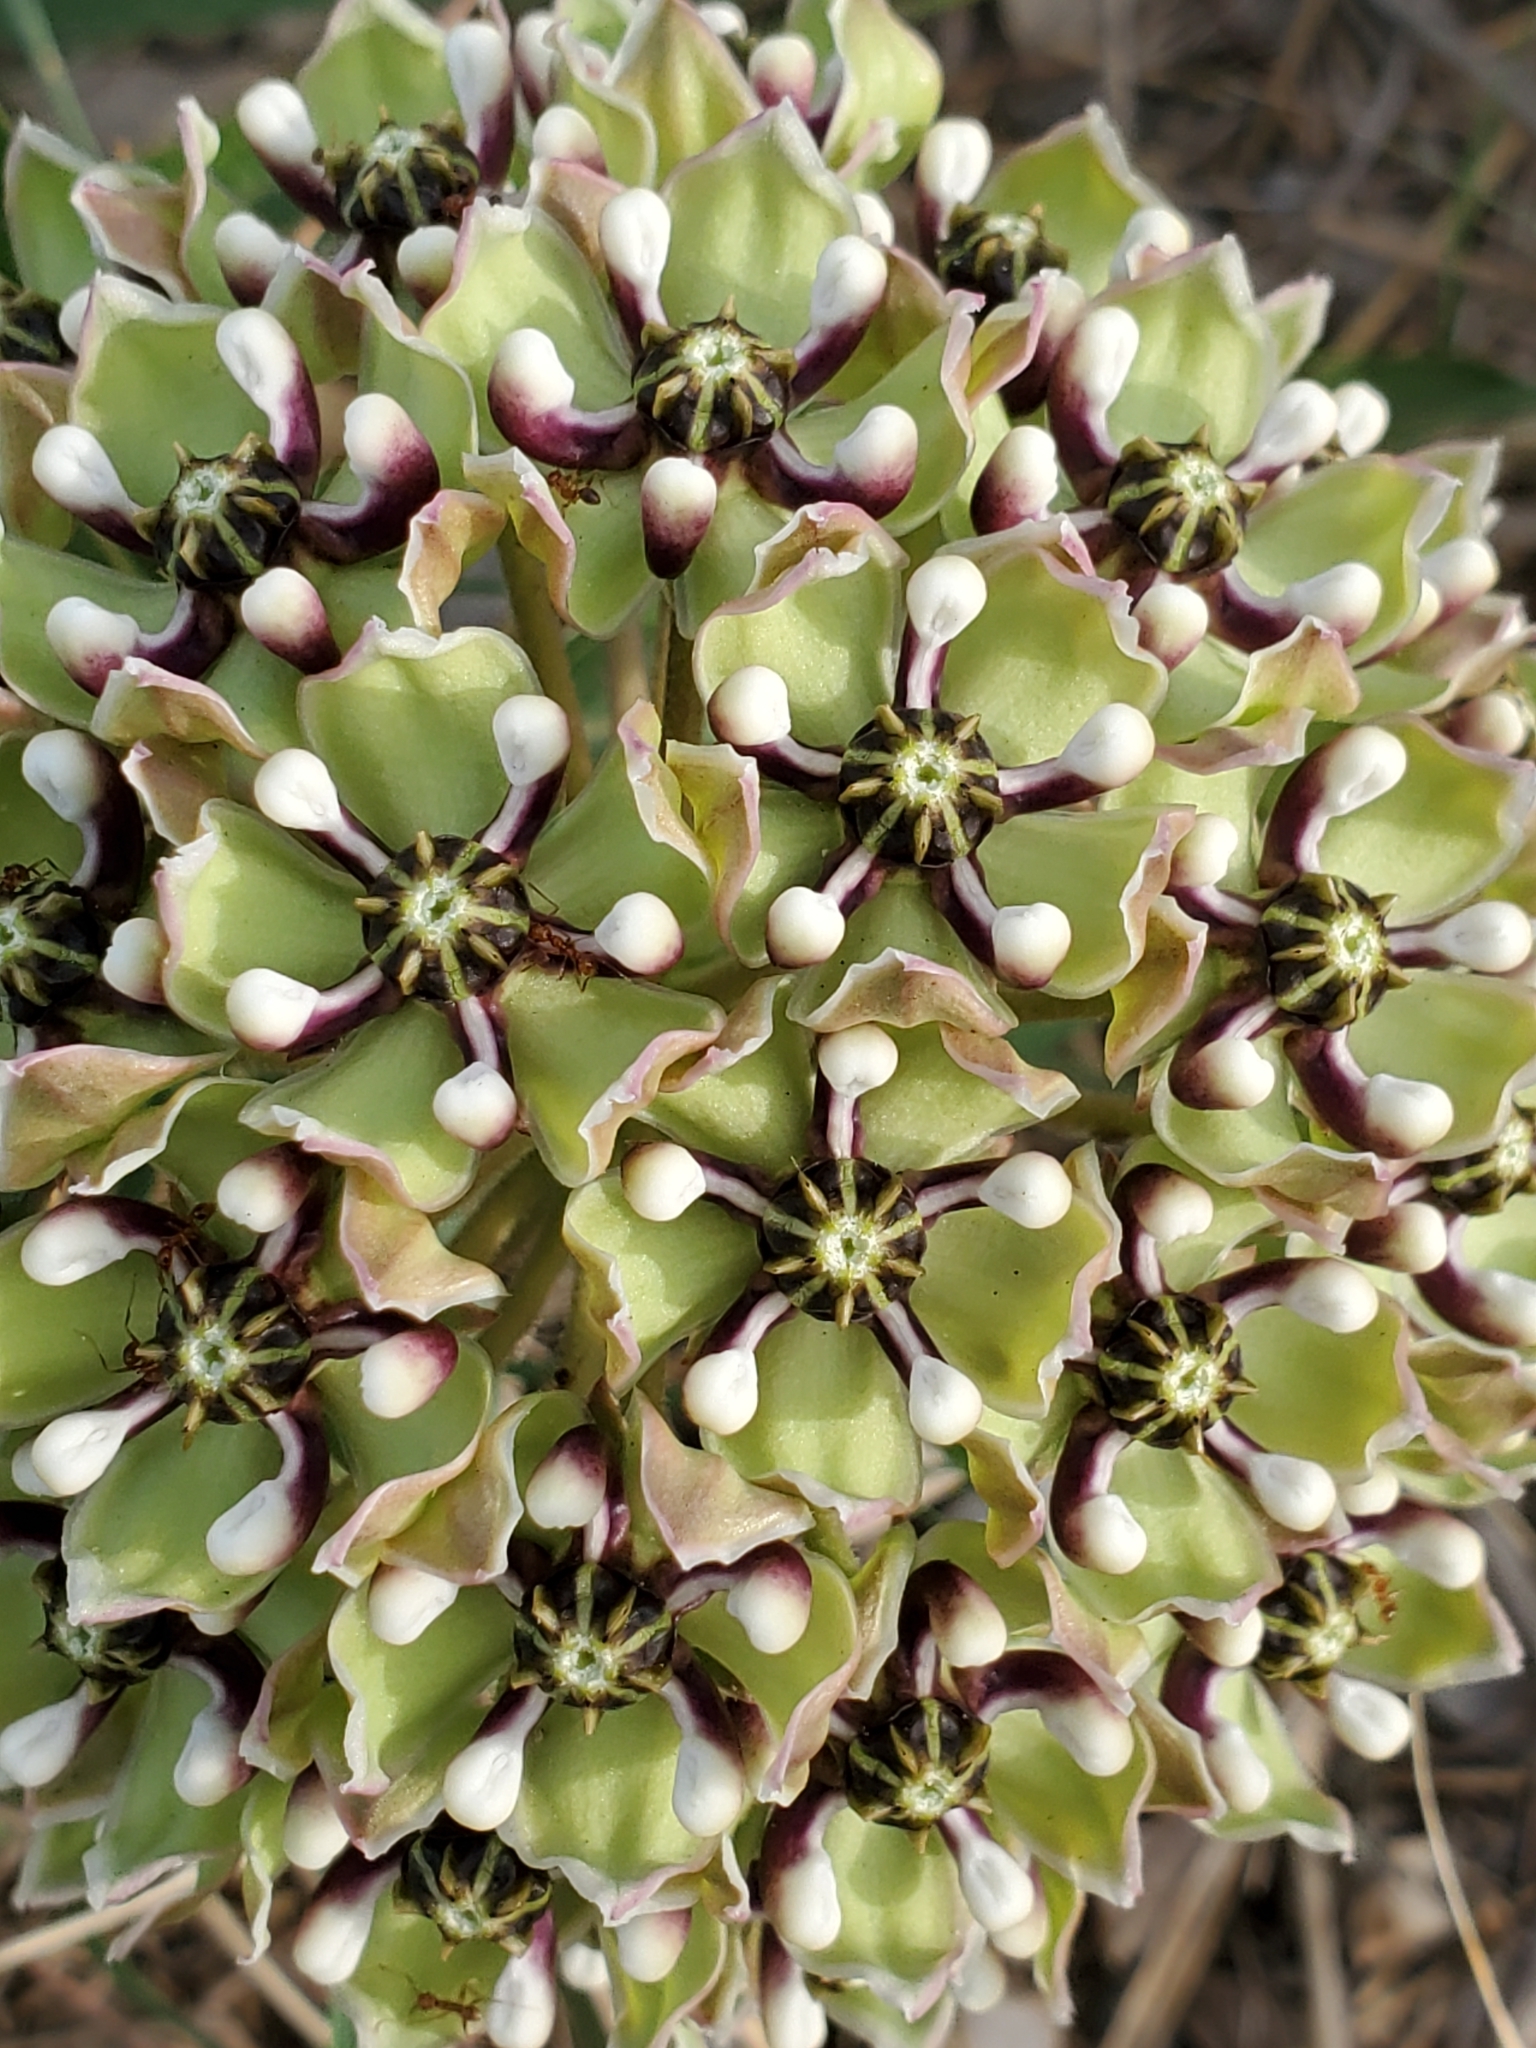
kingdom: Plantae
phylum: Tracheophyta
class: Magnoliopsida
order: Gentianales
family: Apocynaceae
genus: Asclepias
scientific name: Asclepias asperula
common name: Antelope horns
